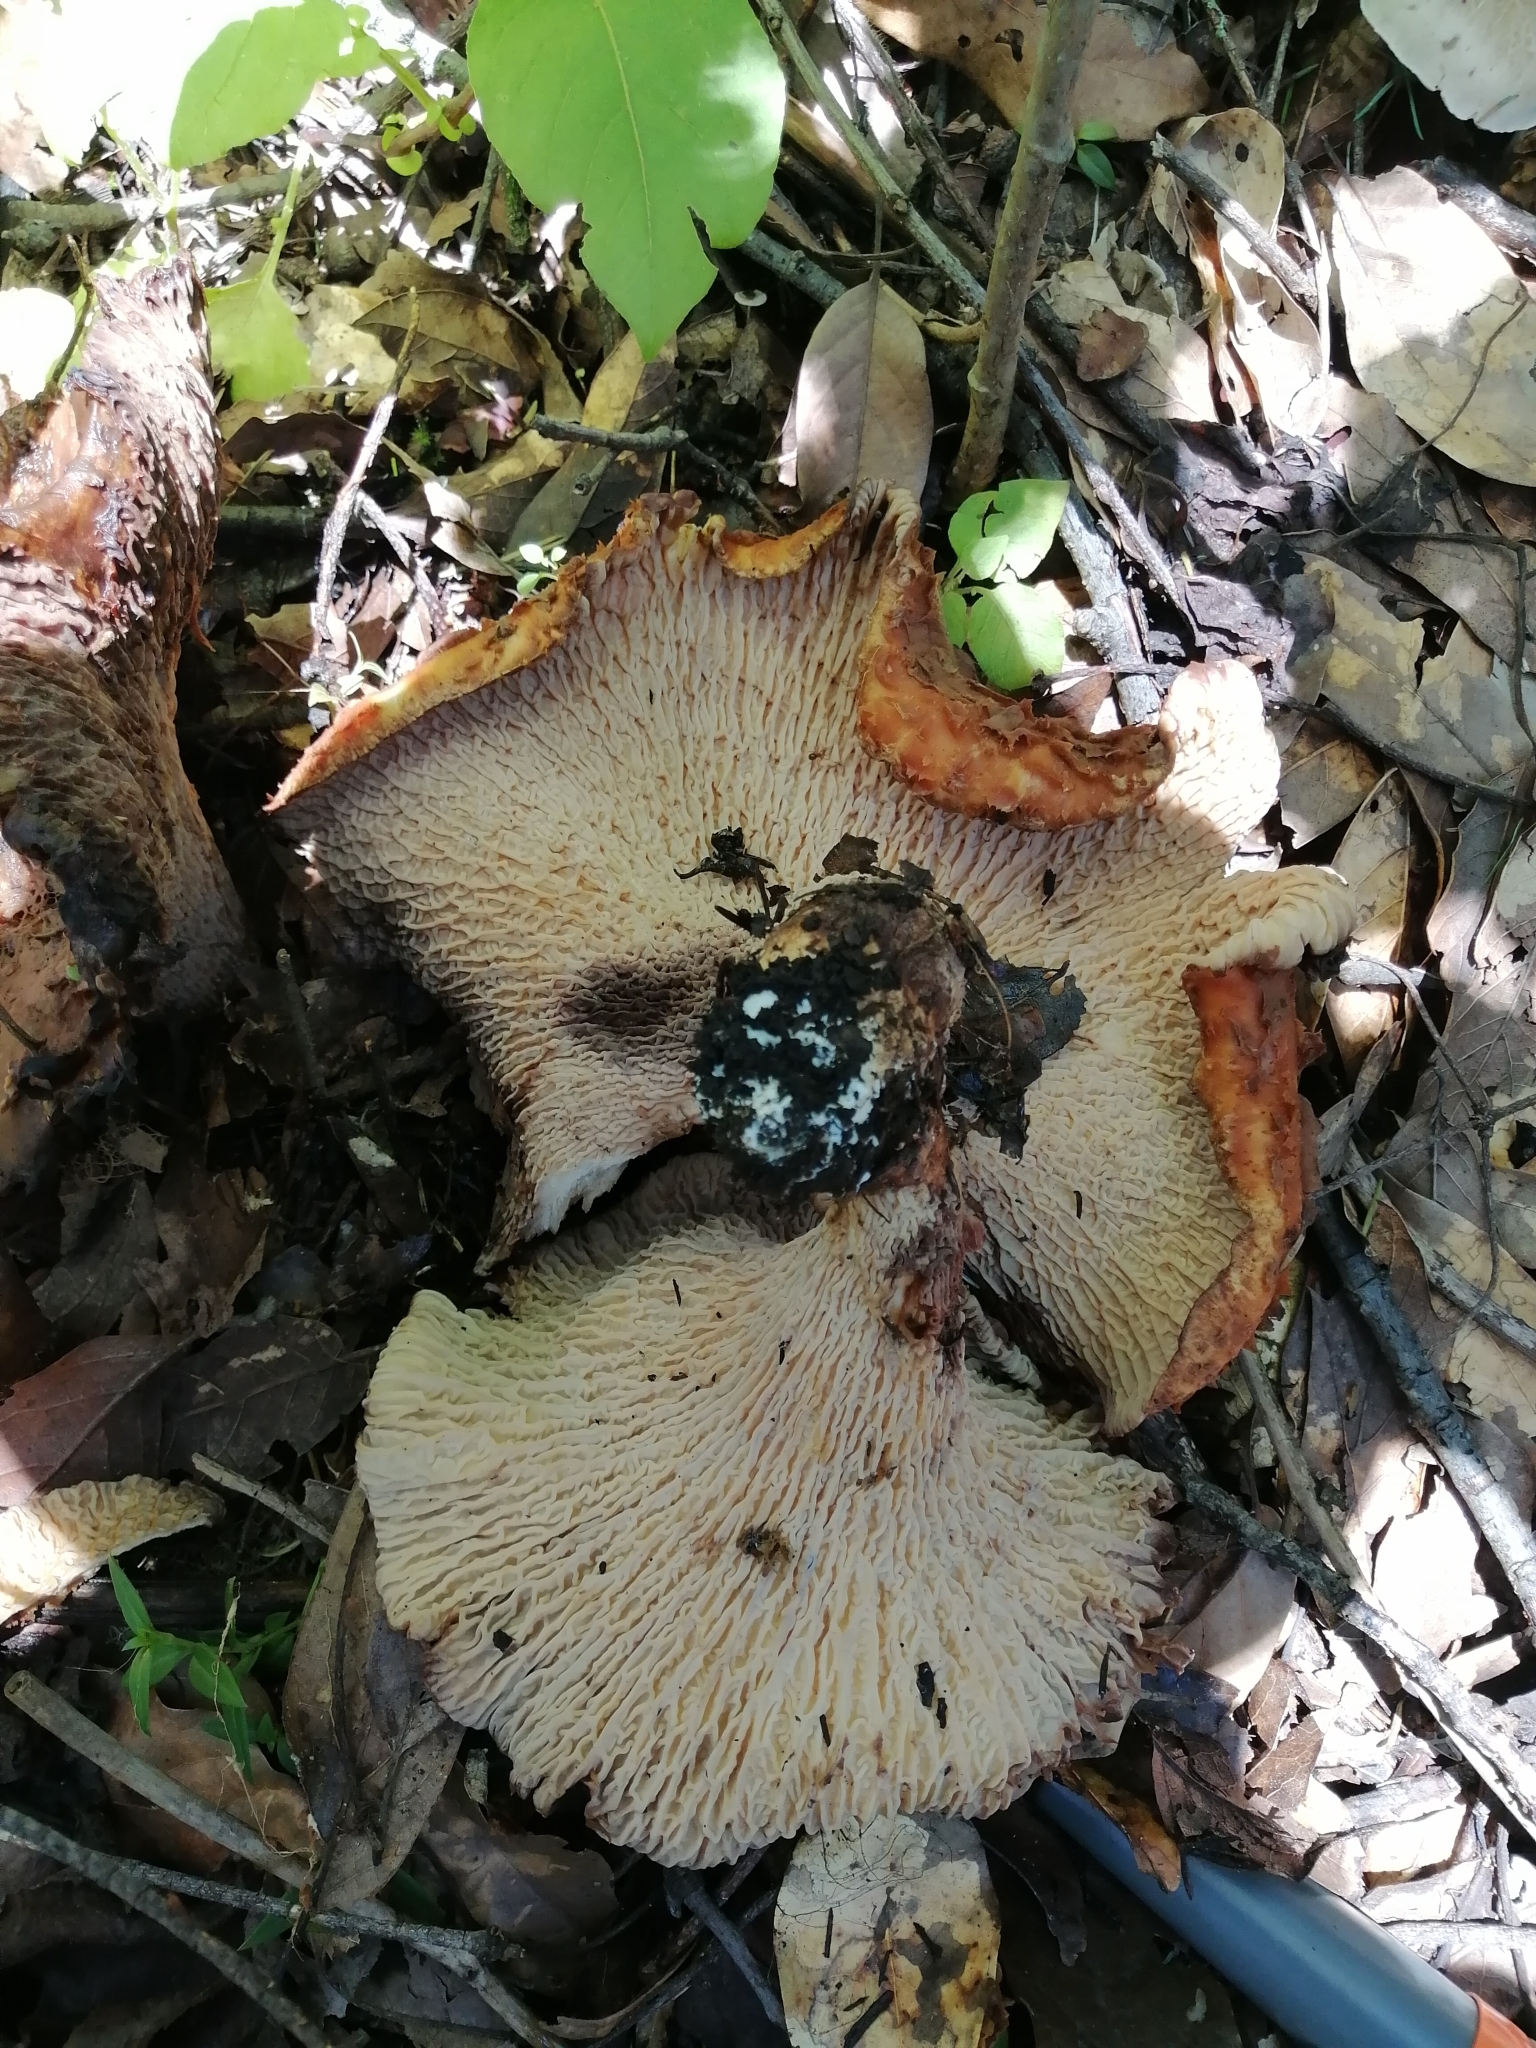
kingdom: Fungi
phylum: Basidiomycota
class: Agaricomycetes
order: Gomphales
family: Gomphaceae
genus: Turbinellus
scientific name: Turbinellus floccosus
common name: Scaly chanterelle
